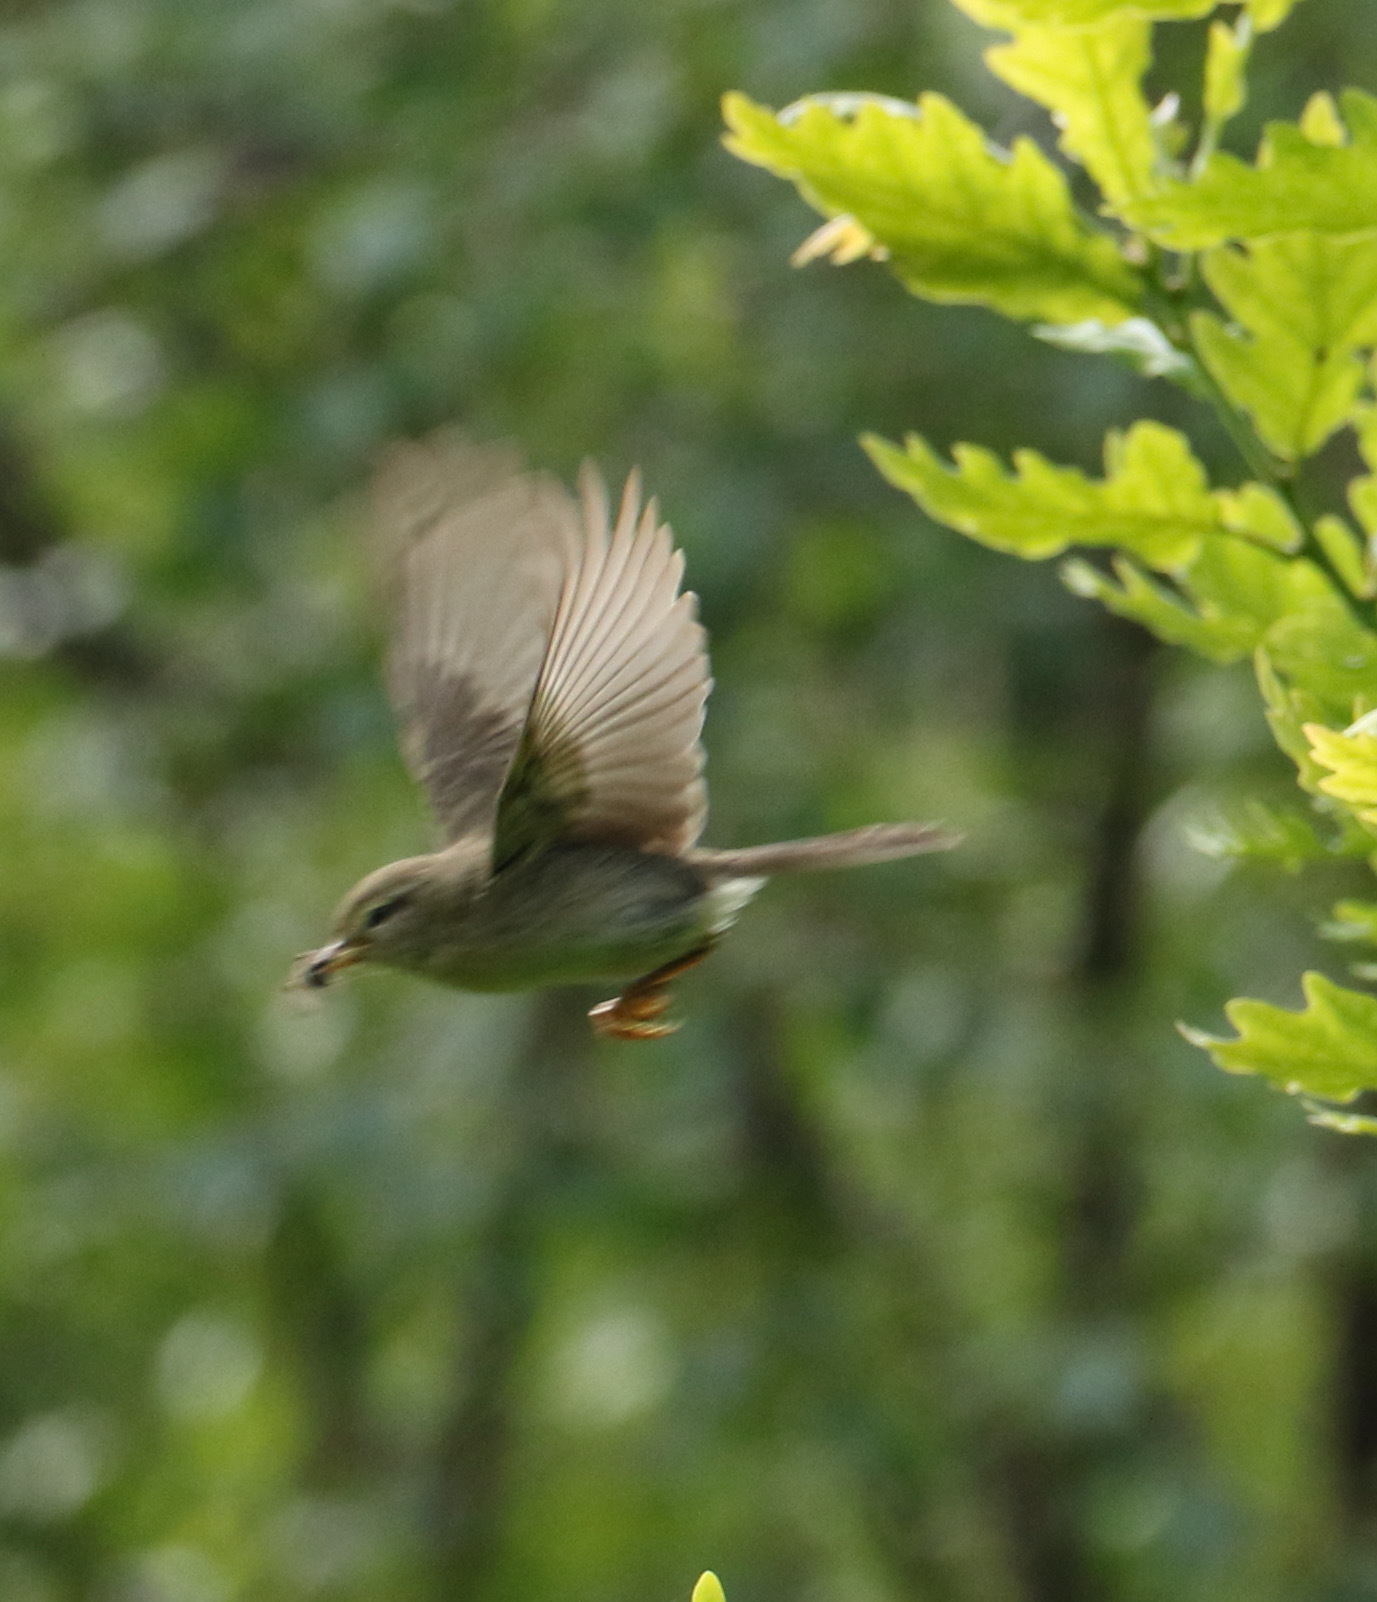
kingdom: Animalia
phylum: Chordata
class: Aves
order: Passeriformes
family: Phylloscopidae
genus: Phylloscopus
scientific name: Phylloscopus trochilus
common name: Willow warbler
